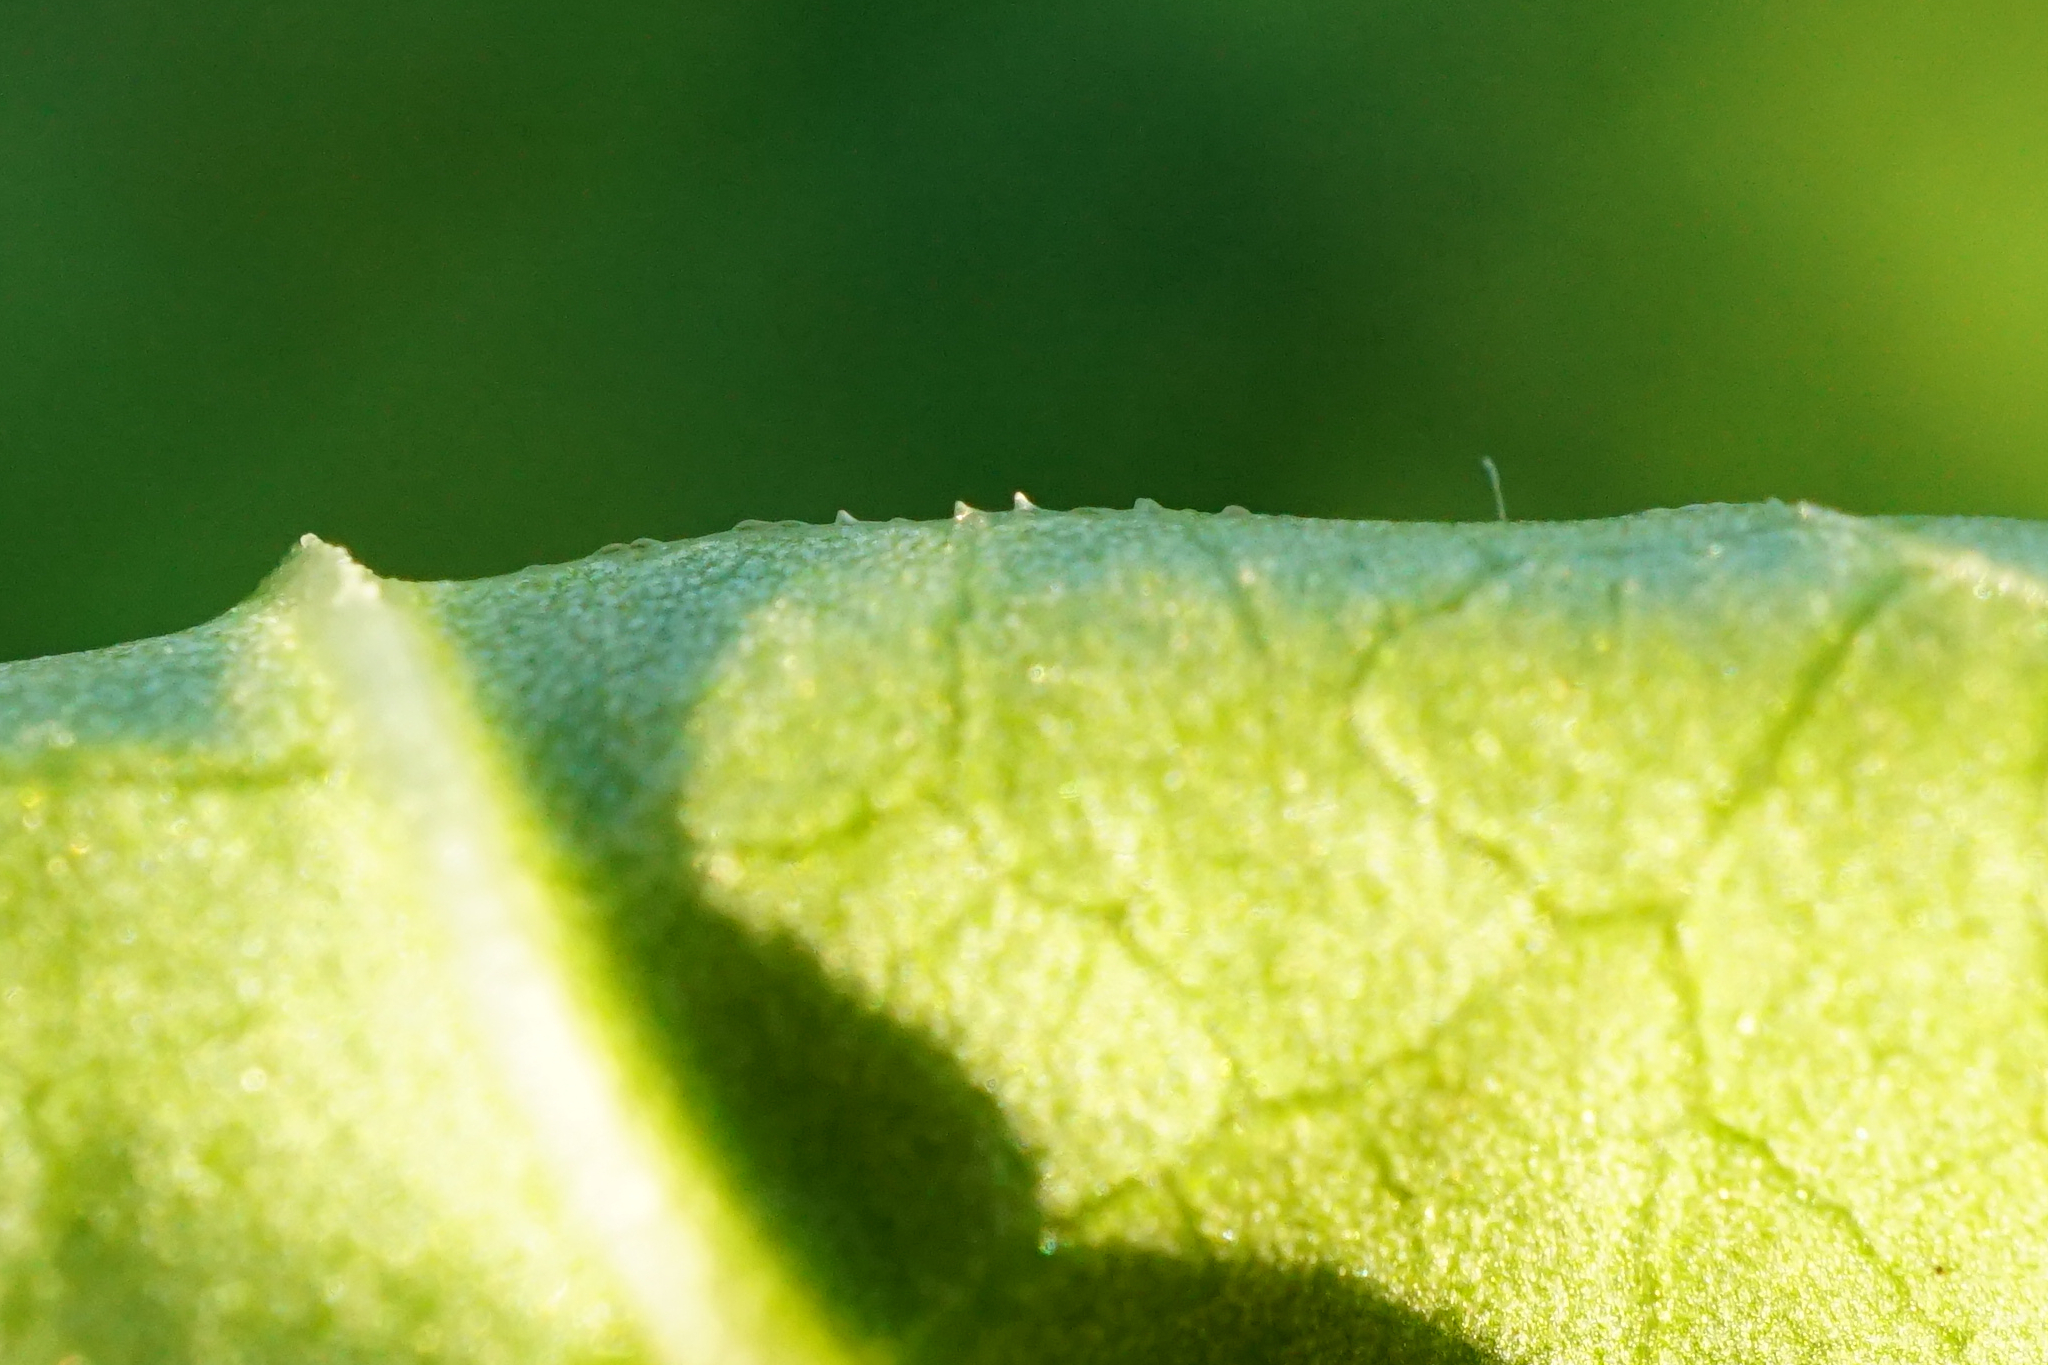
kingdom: Plantae
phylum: Tracheophyta
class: Magnoliopsida
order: Caryophyllales
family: Polygonaceae
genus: Reynoutria
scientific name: Reynoutria bohemica
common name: Bohemian knotweed
